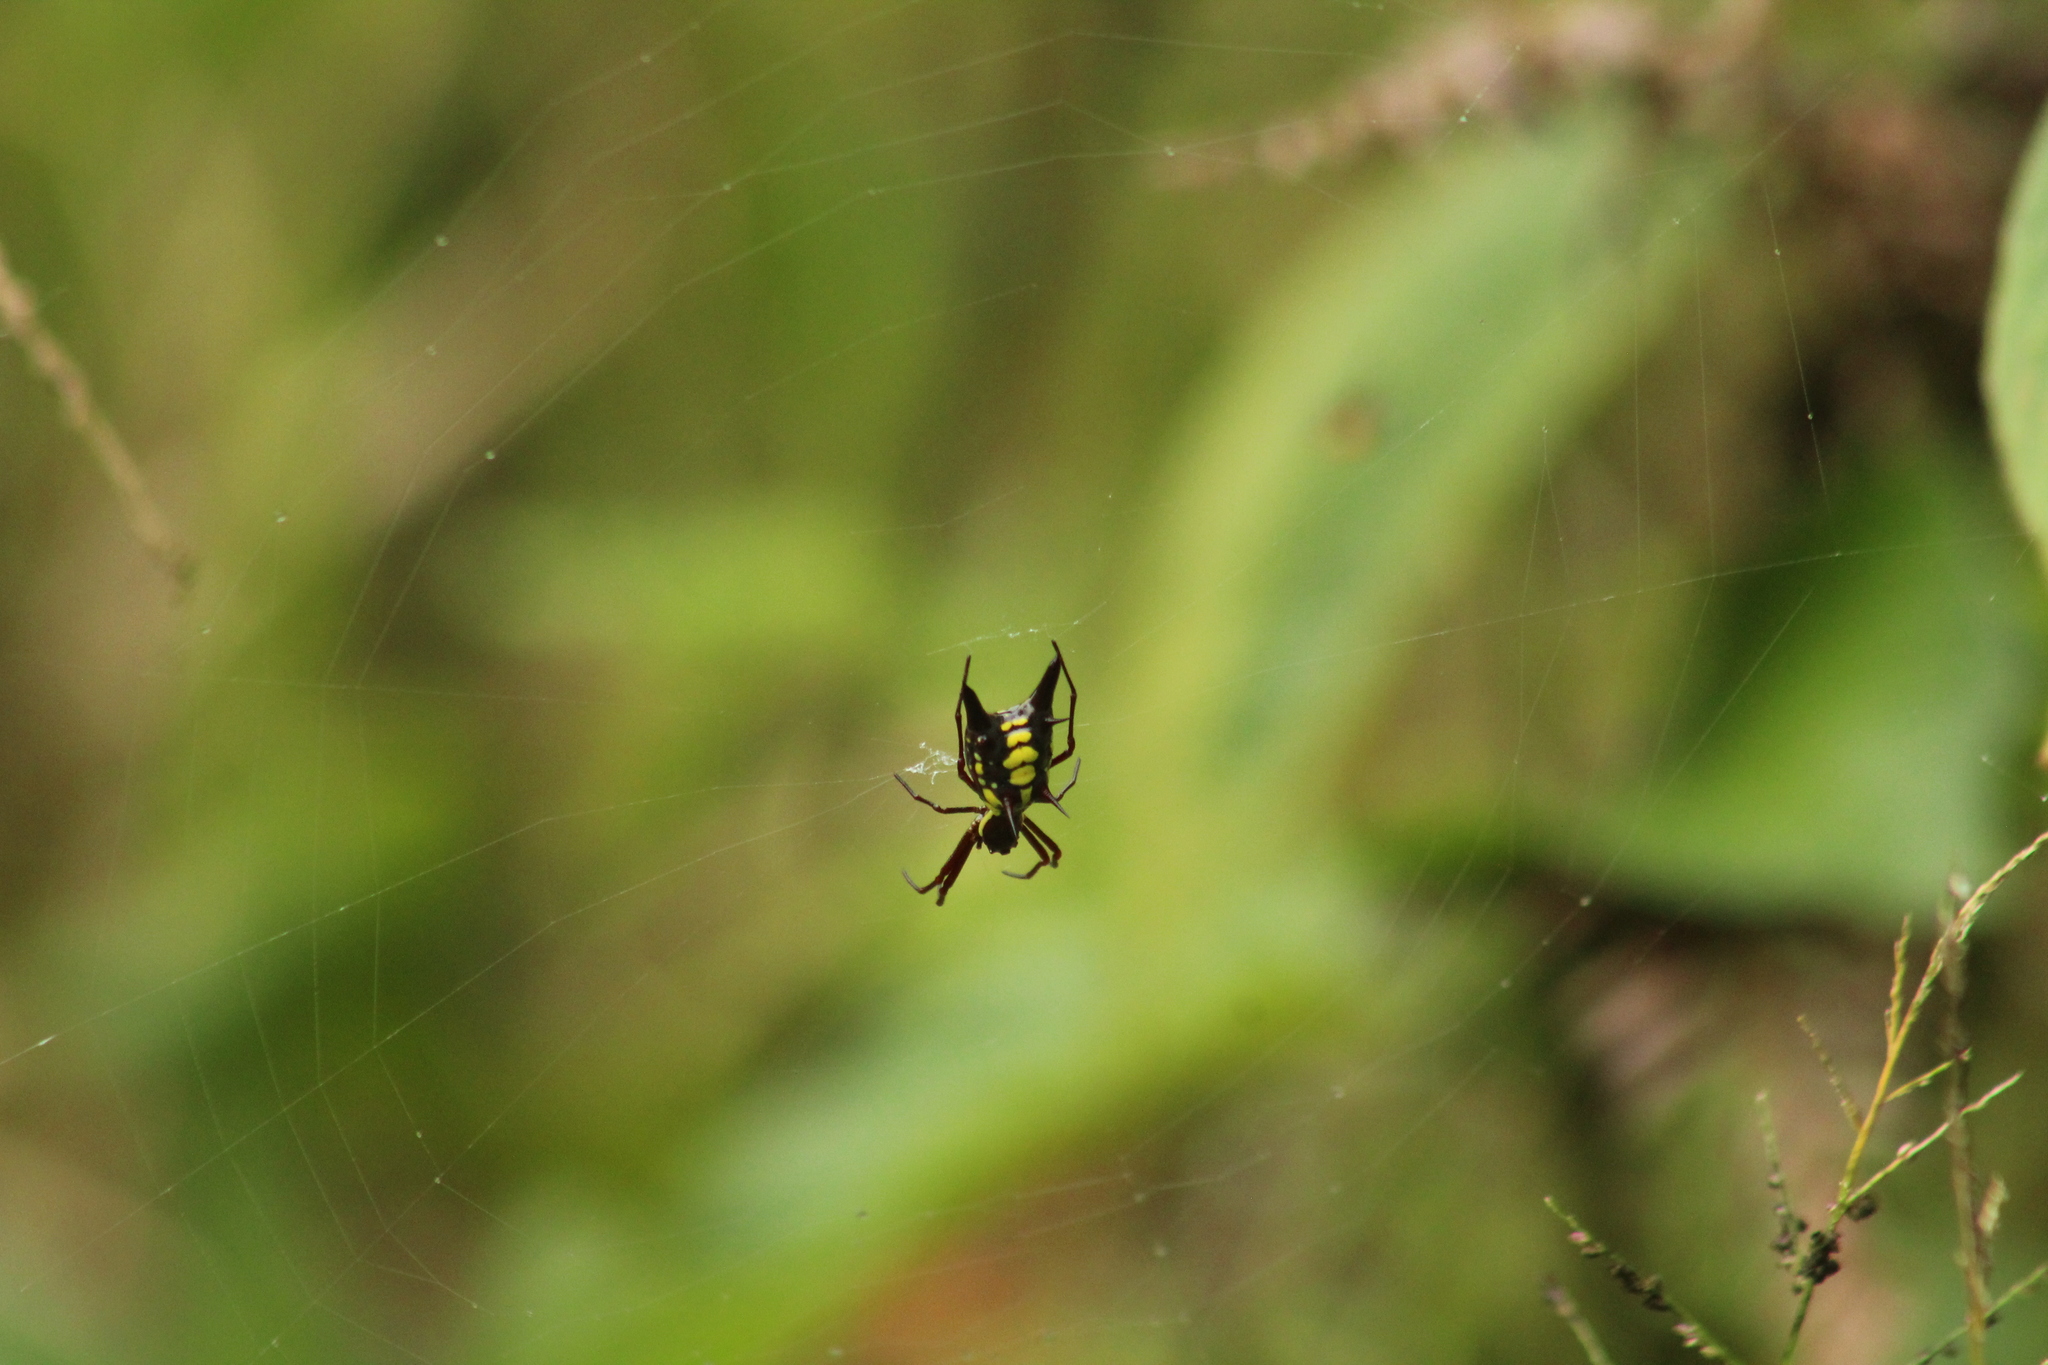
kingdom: Animalia
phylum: Arthropoda
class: Arachnida
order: Araneae
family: Araneidae
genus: Micrathena
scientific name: Micrathena pichincha
